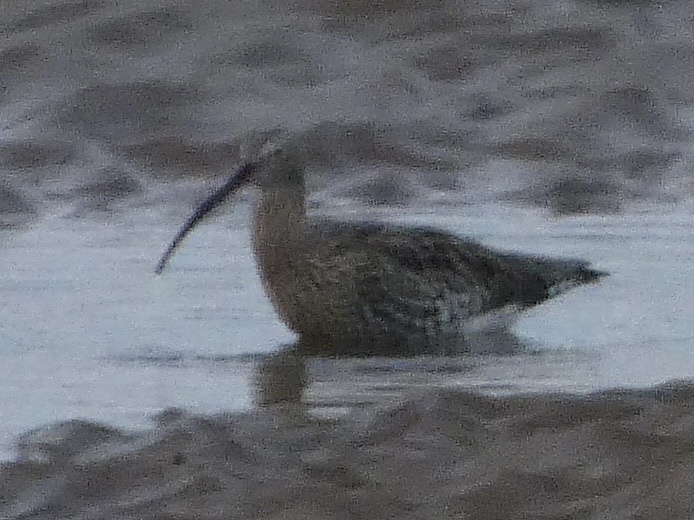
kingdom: Animalia
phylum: Chordata
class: Aves
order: Charadriiformes
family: Scolopacidae
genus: Numenius
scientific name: Numenius arquata
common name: Eurasian curlew
